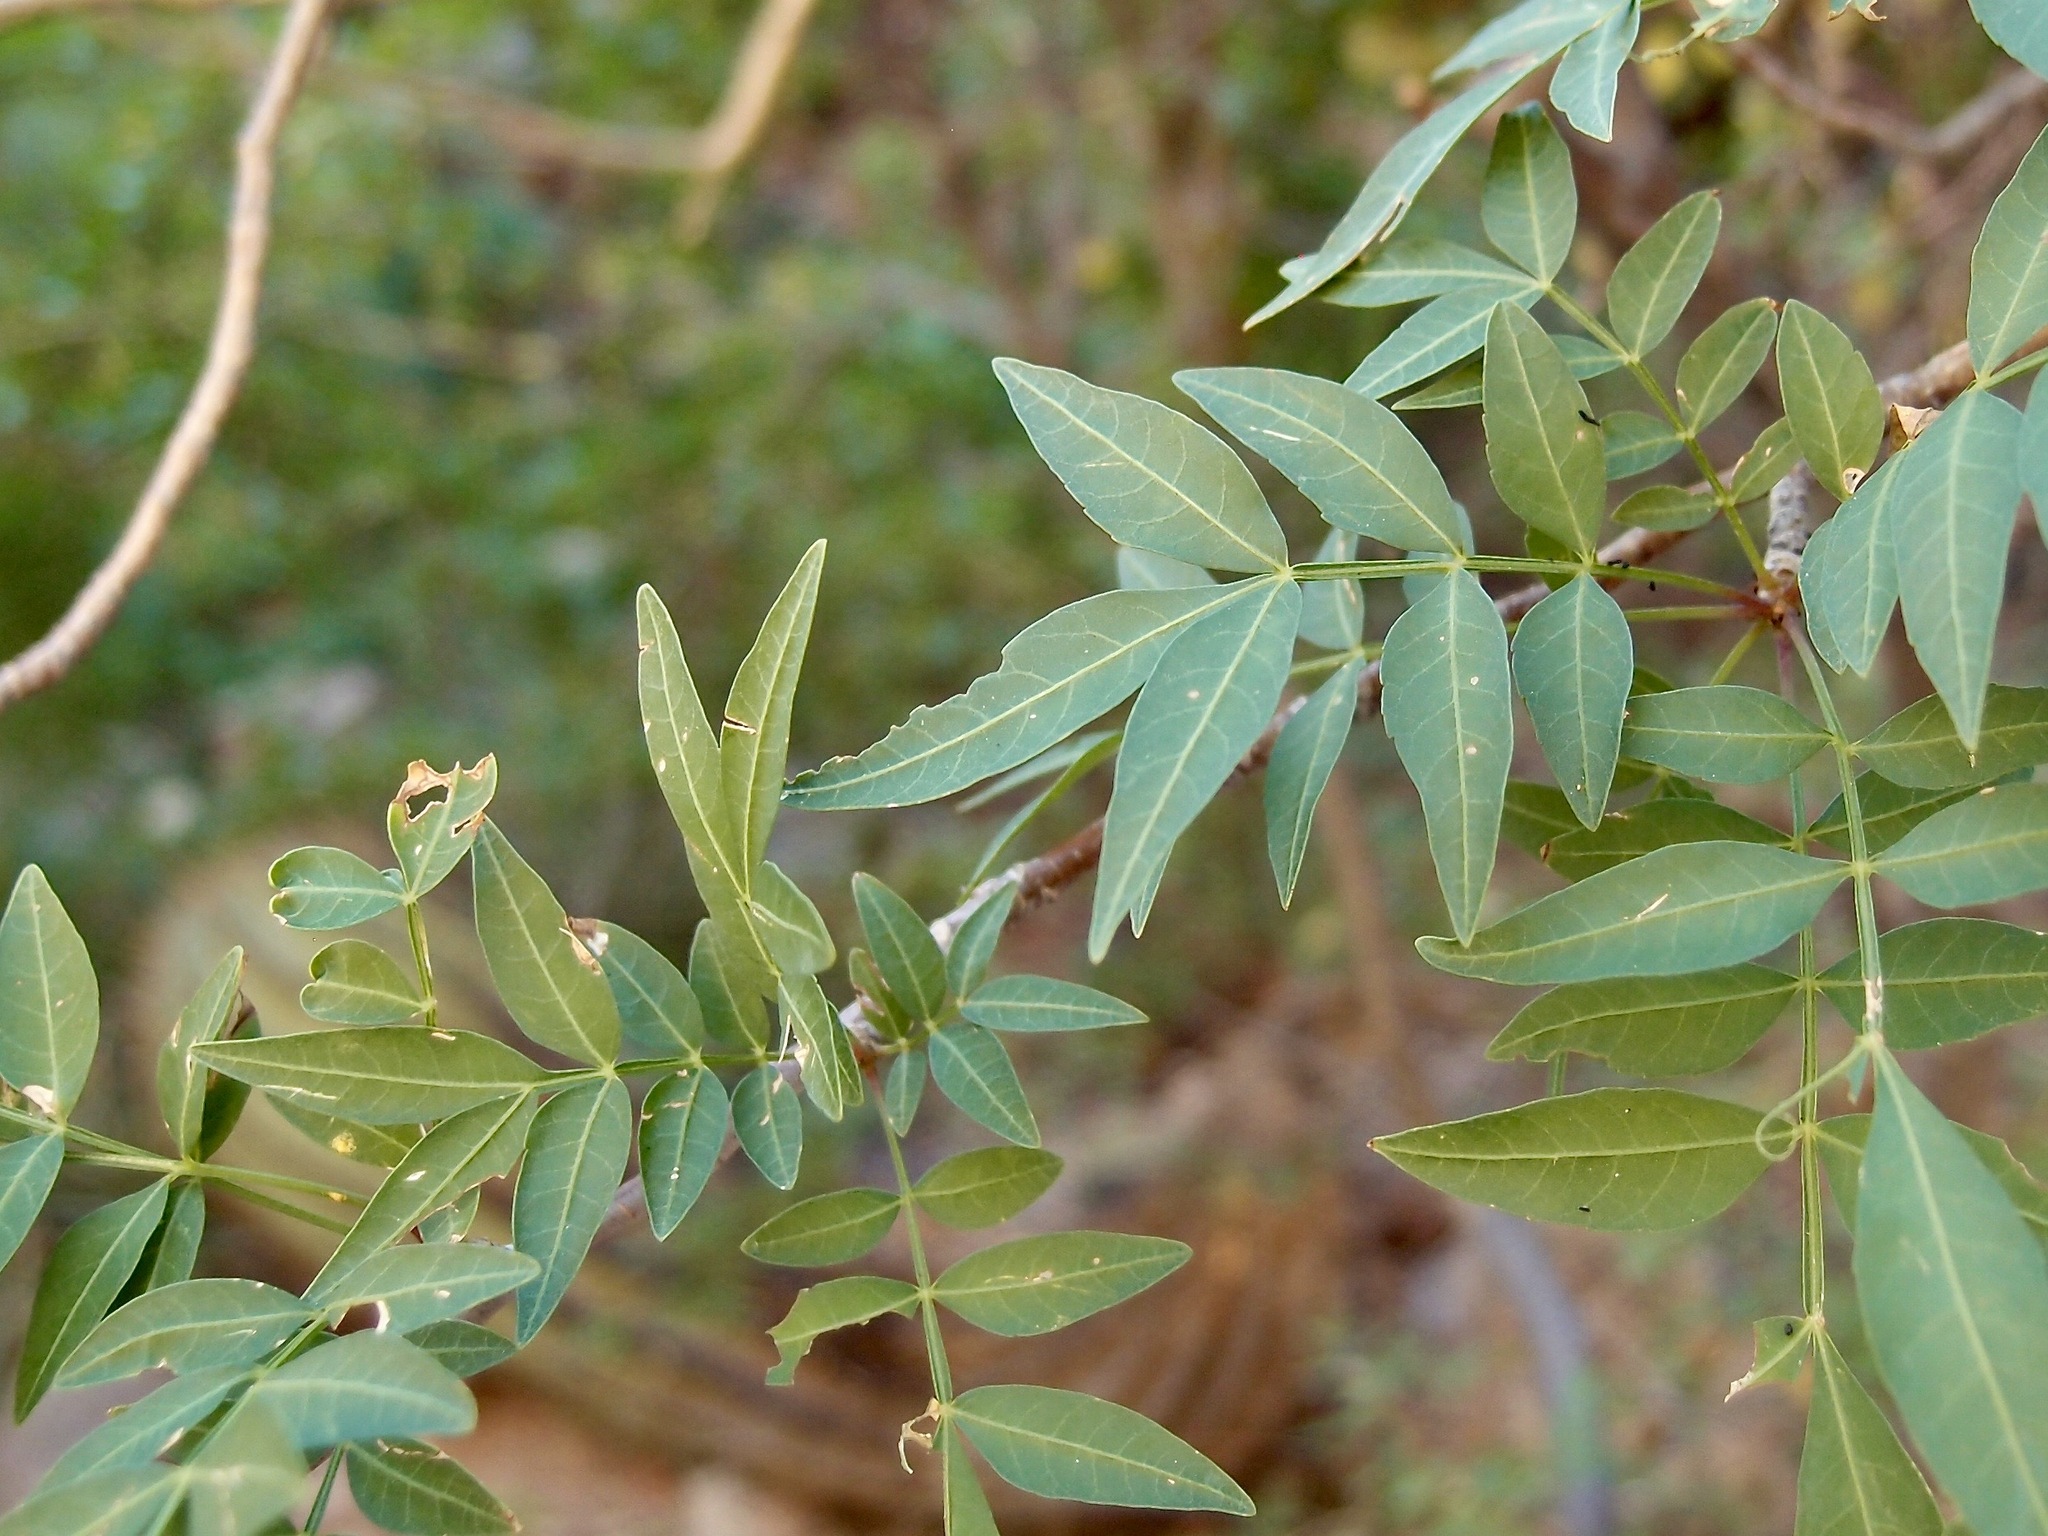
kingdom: Plantae
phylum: Tracheophyta
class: Magnoliopsida
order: Sapindales
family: Burseraceae
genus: Bursera
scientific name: Bursera fagaroides
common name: Elephant tree
